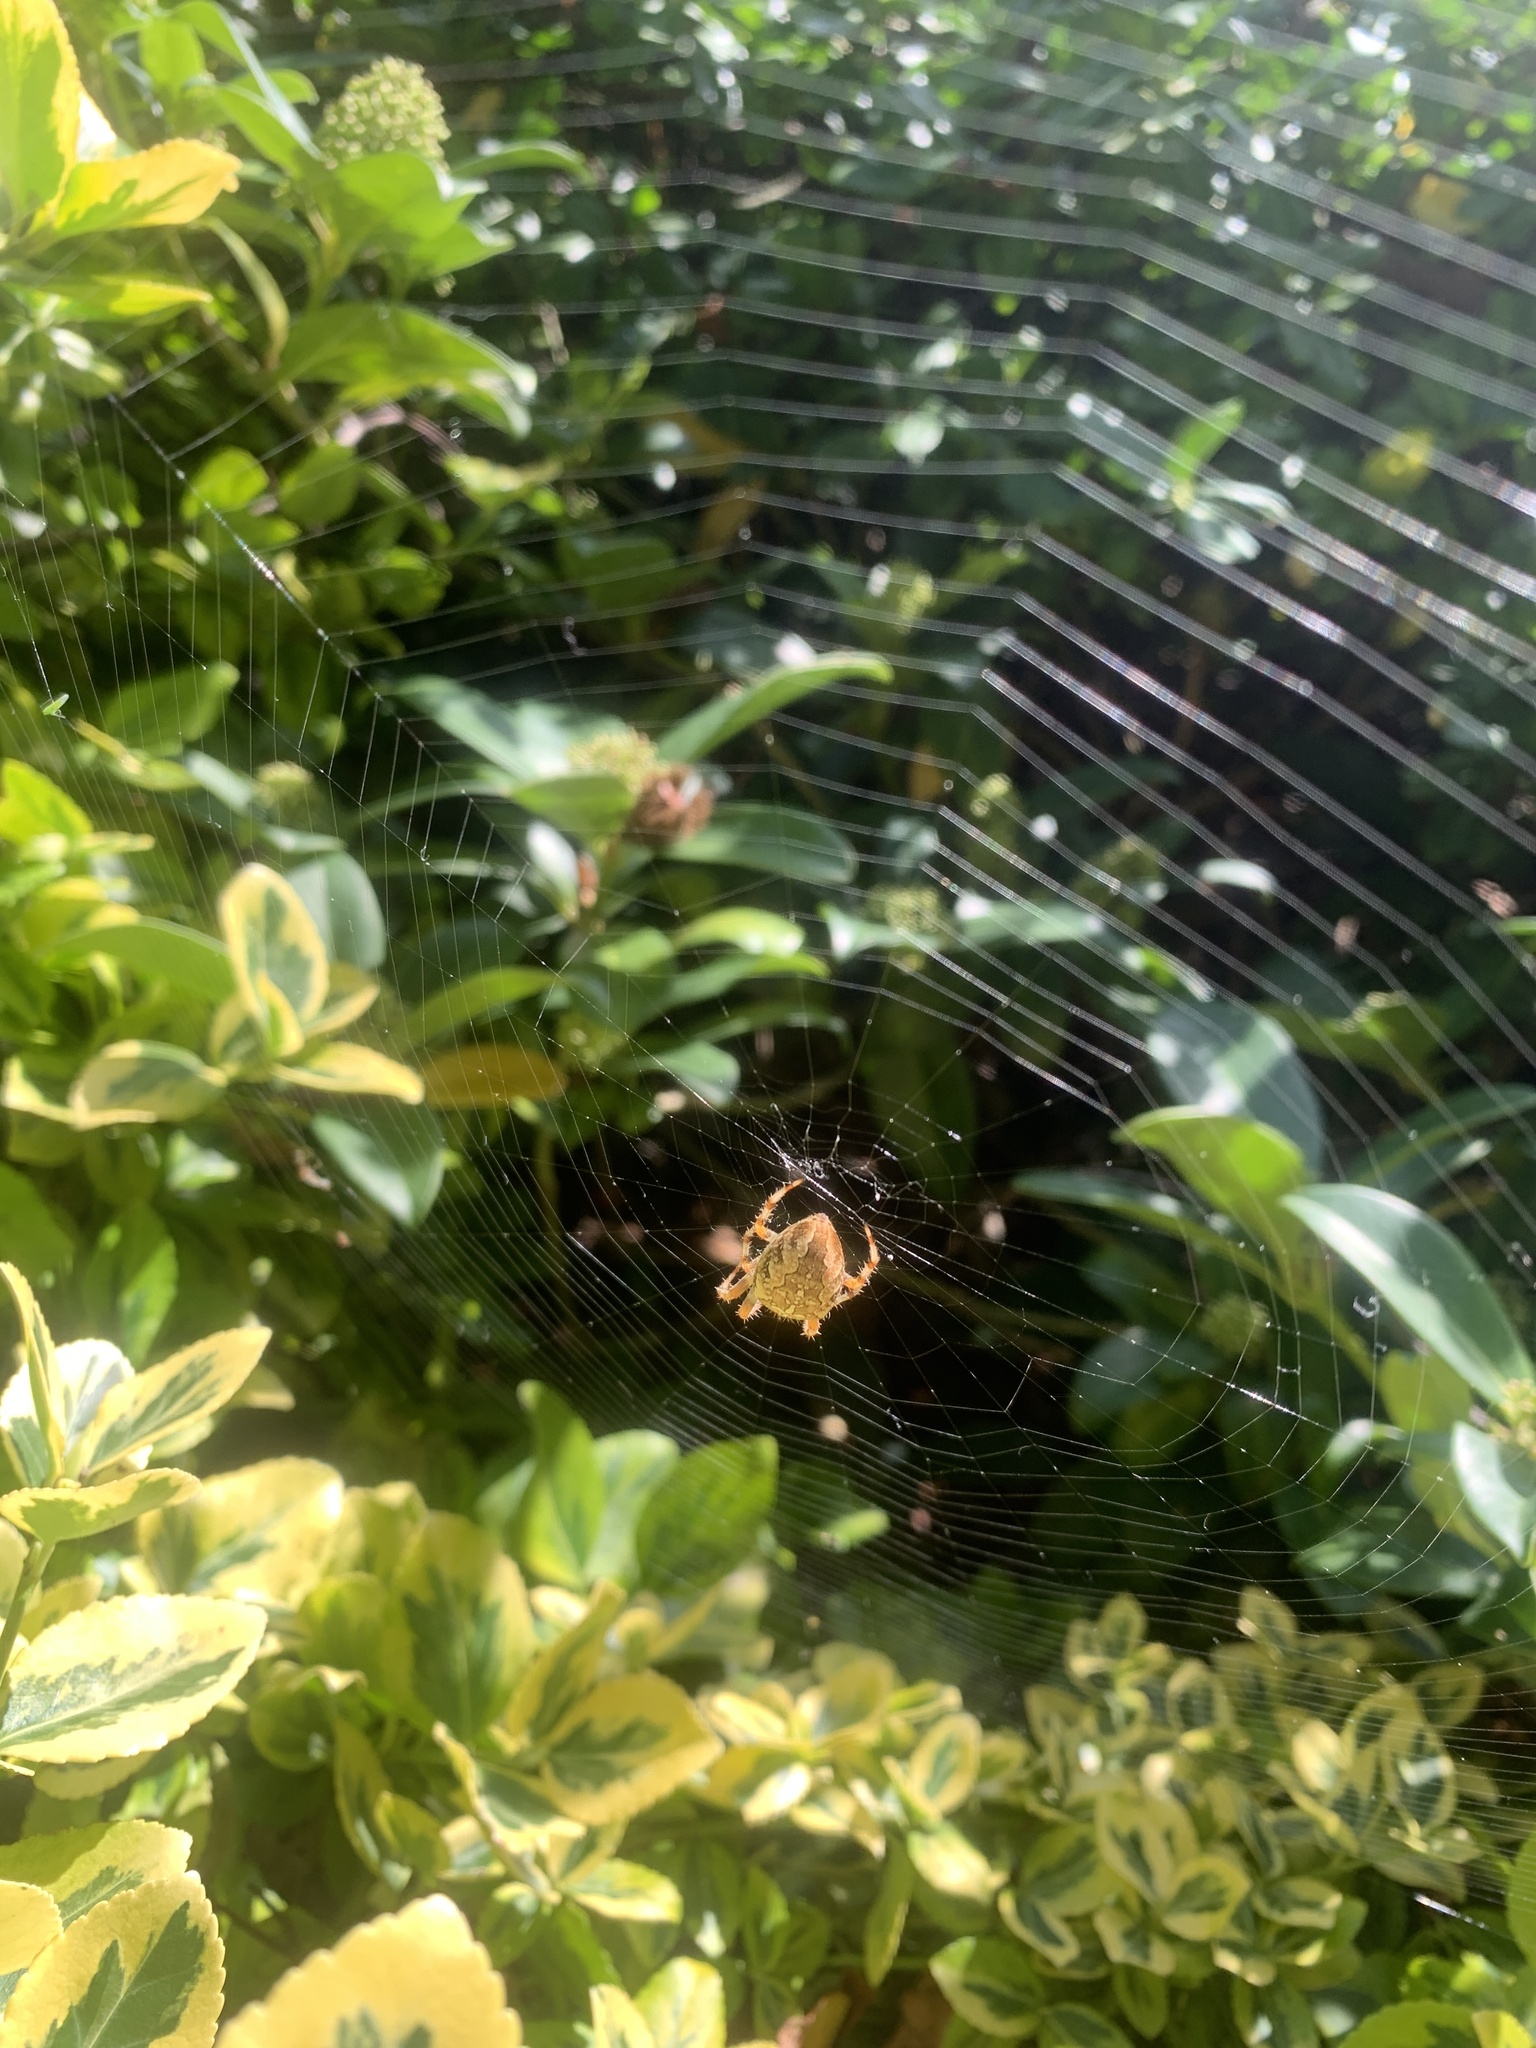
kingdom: Animalia
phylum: Arthropoda
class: Arachnida
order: Araneae
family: Araneidae
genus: Araneus
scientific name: Araneus diadematus
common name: Cross orbweaver
